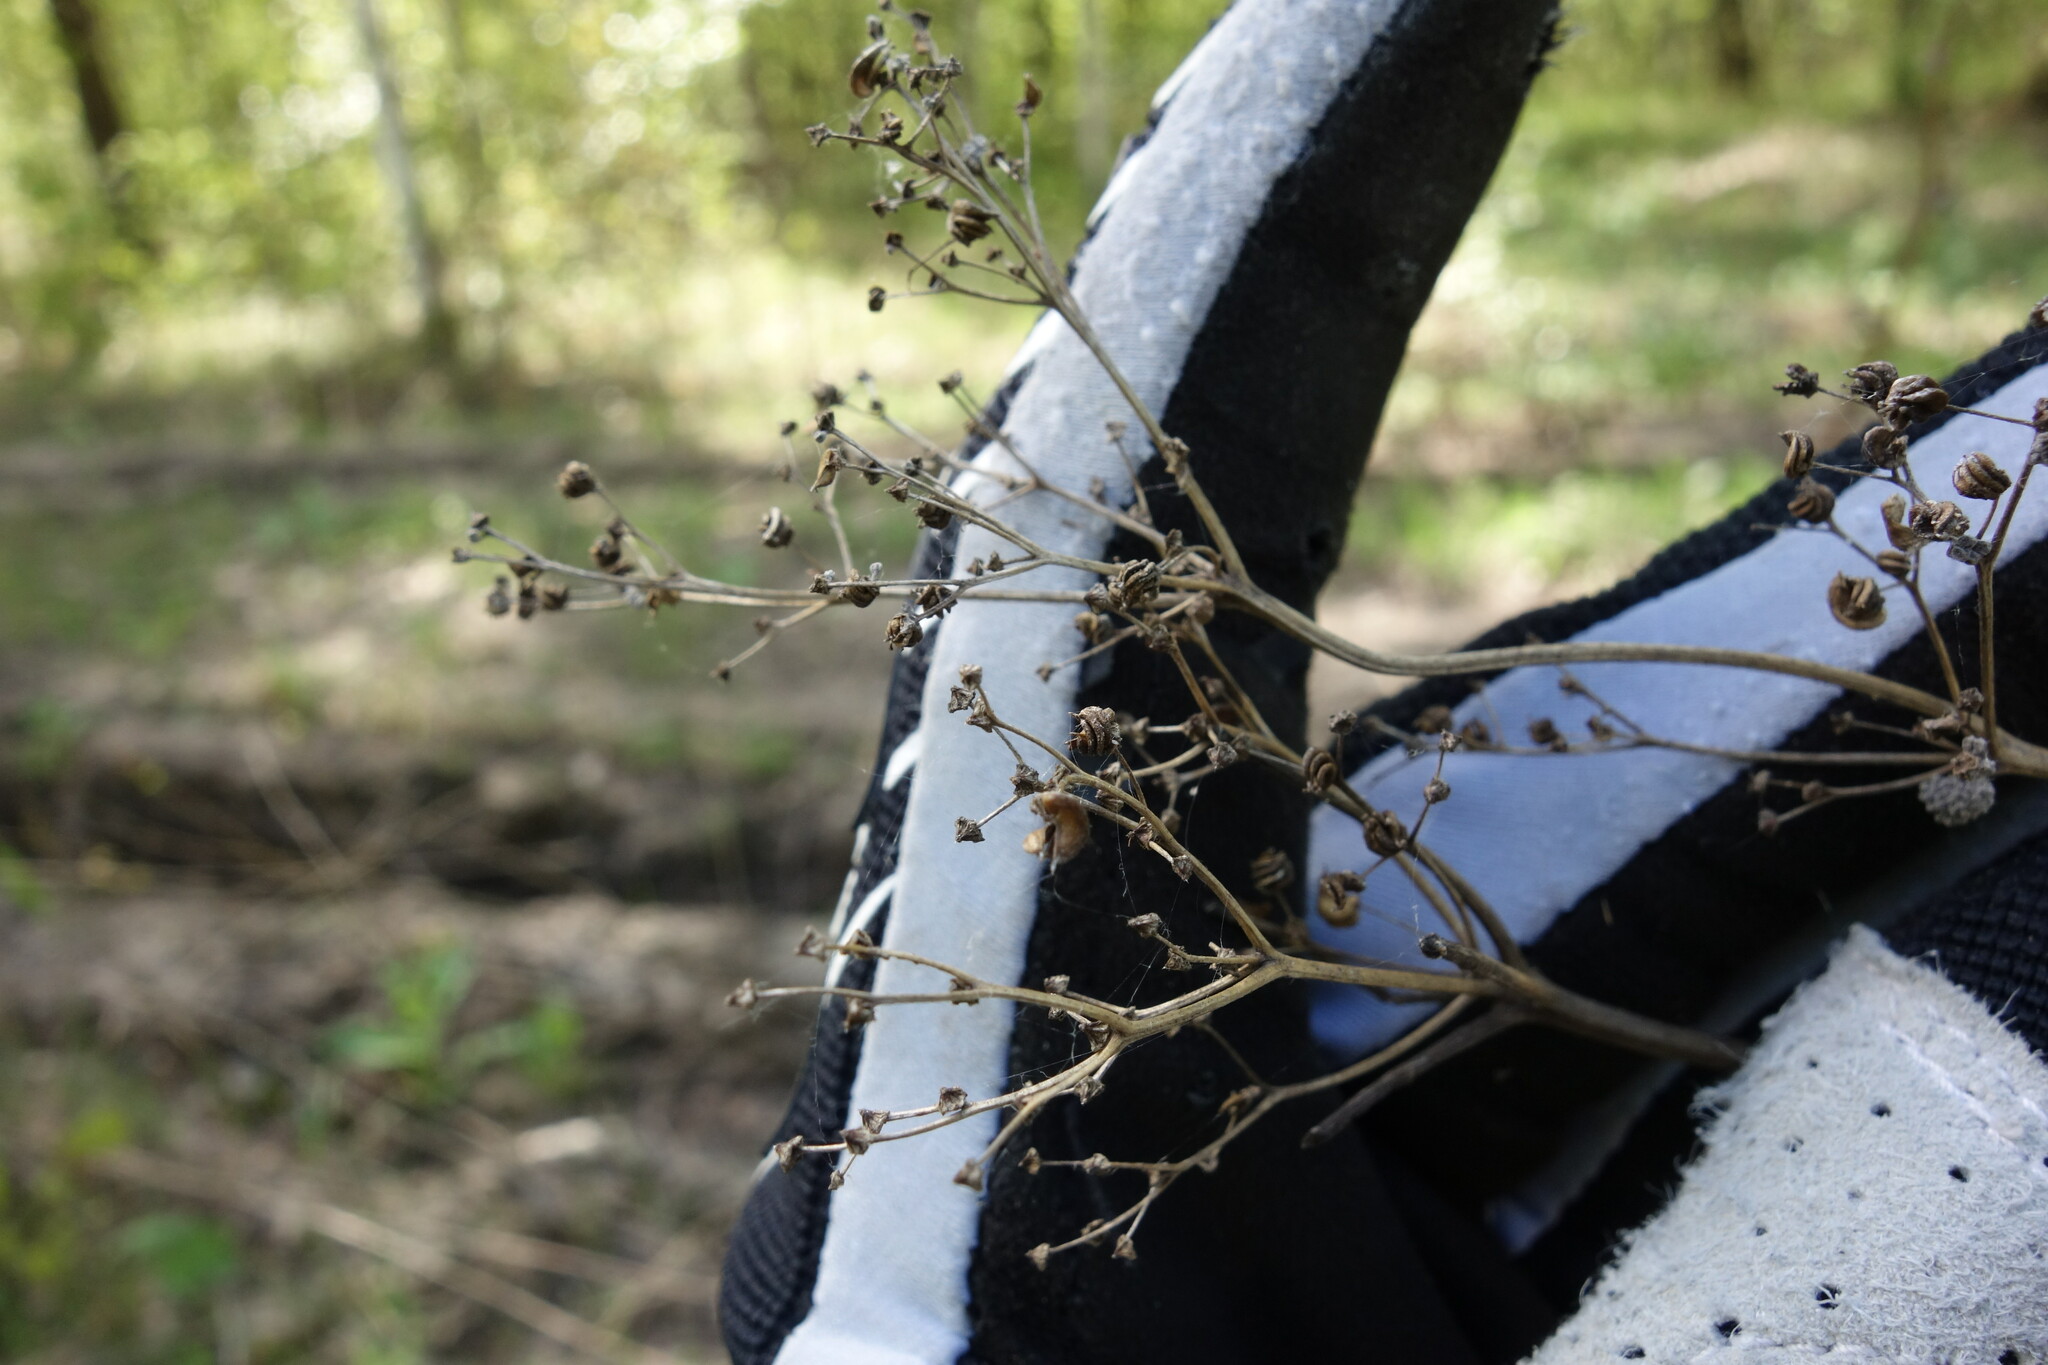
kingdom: Plantae
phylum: Tracheophyta
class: Magnoliopsida
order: Rosales
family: Rosaceae
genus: Filipendula
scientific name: Filipendula ulmaria
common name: Meadowsweet
